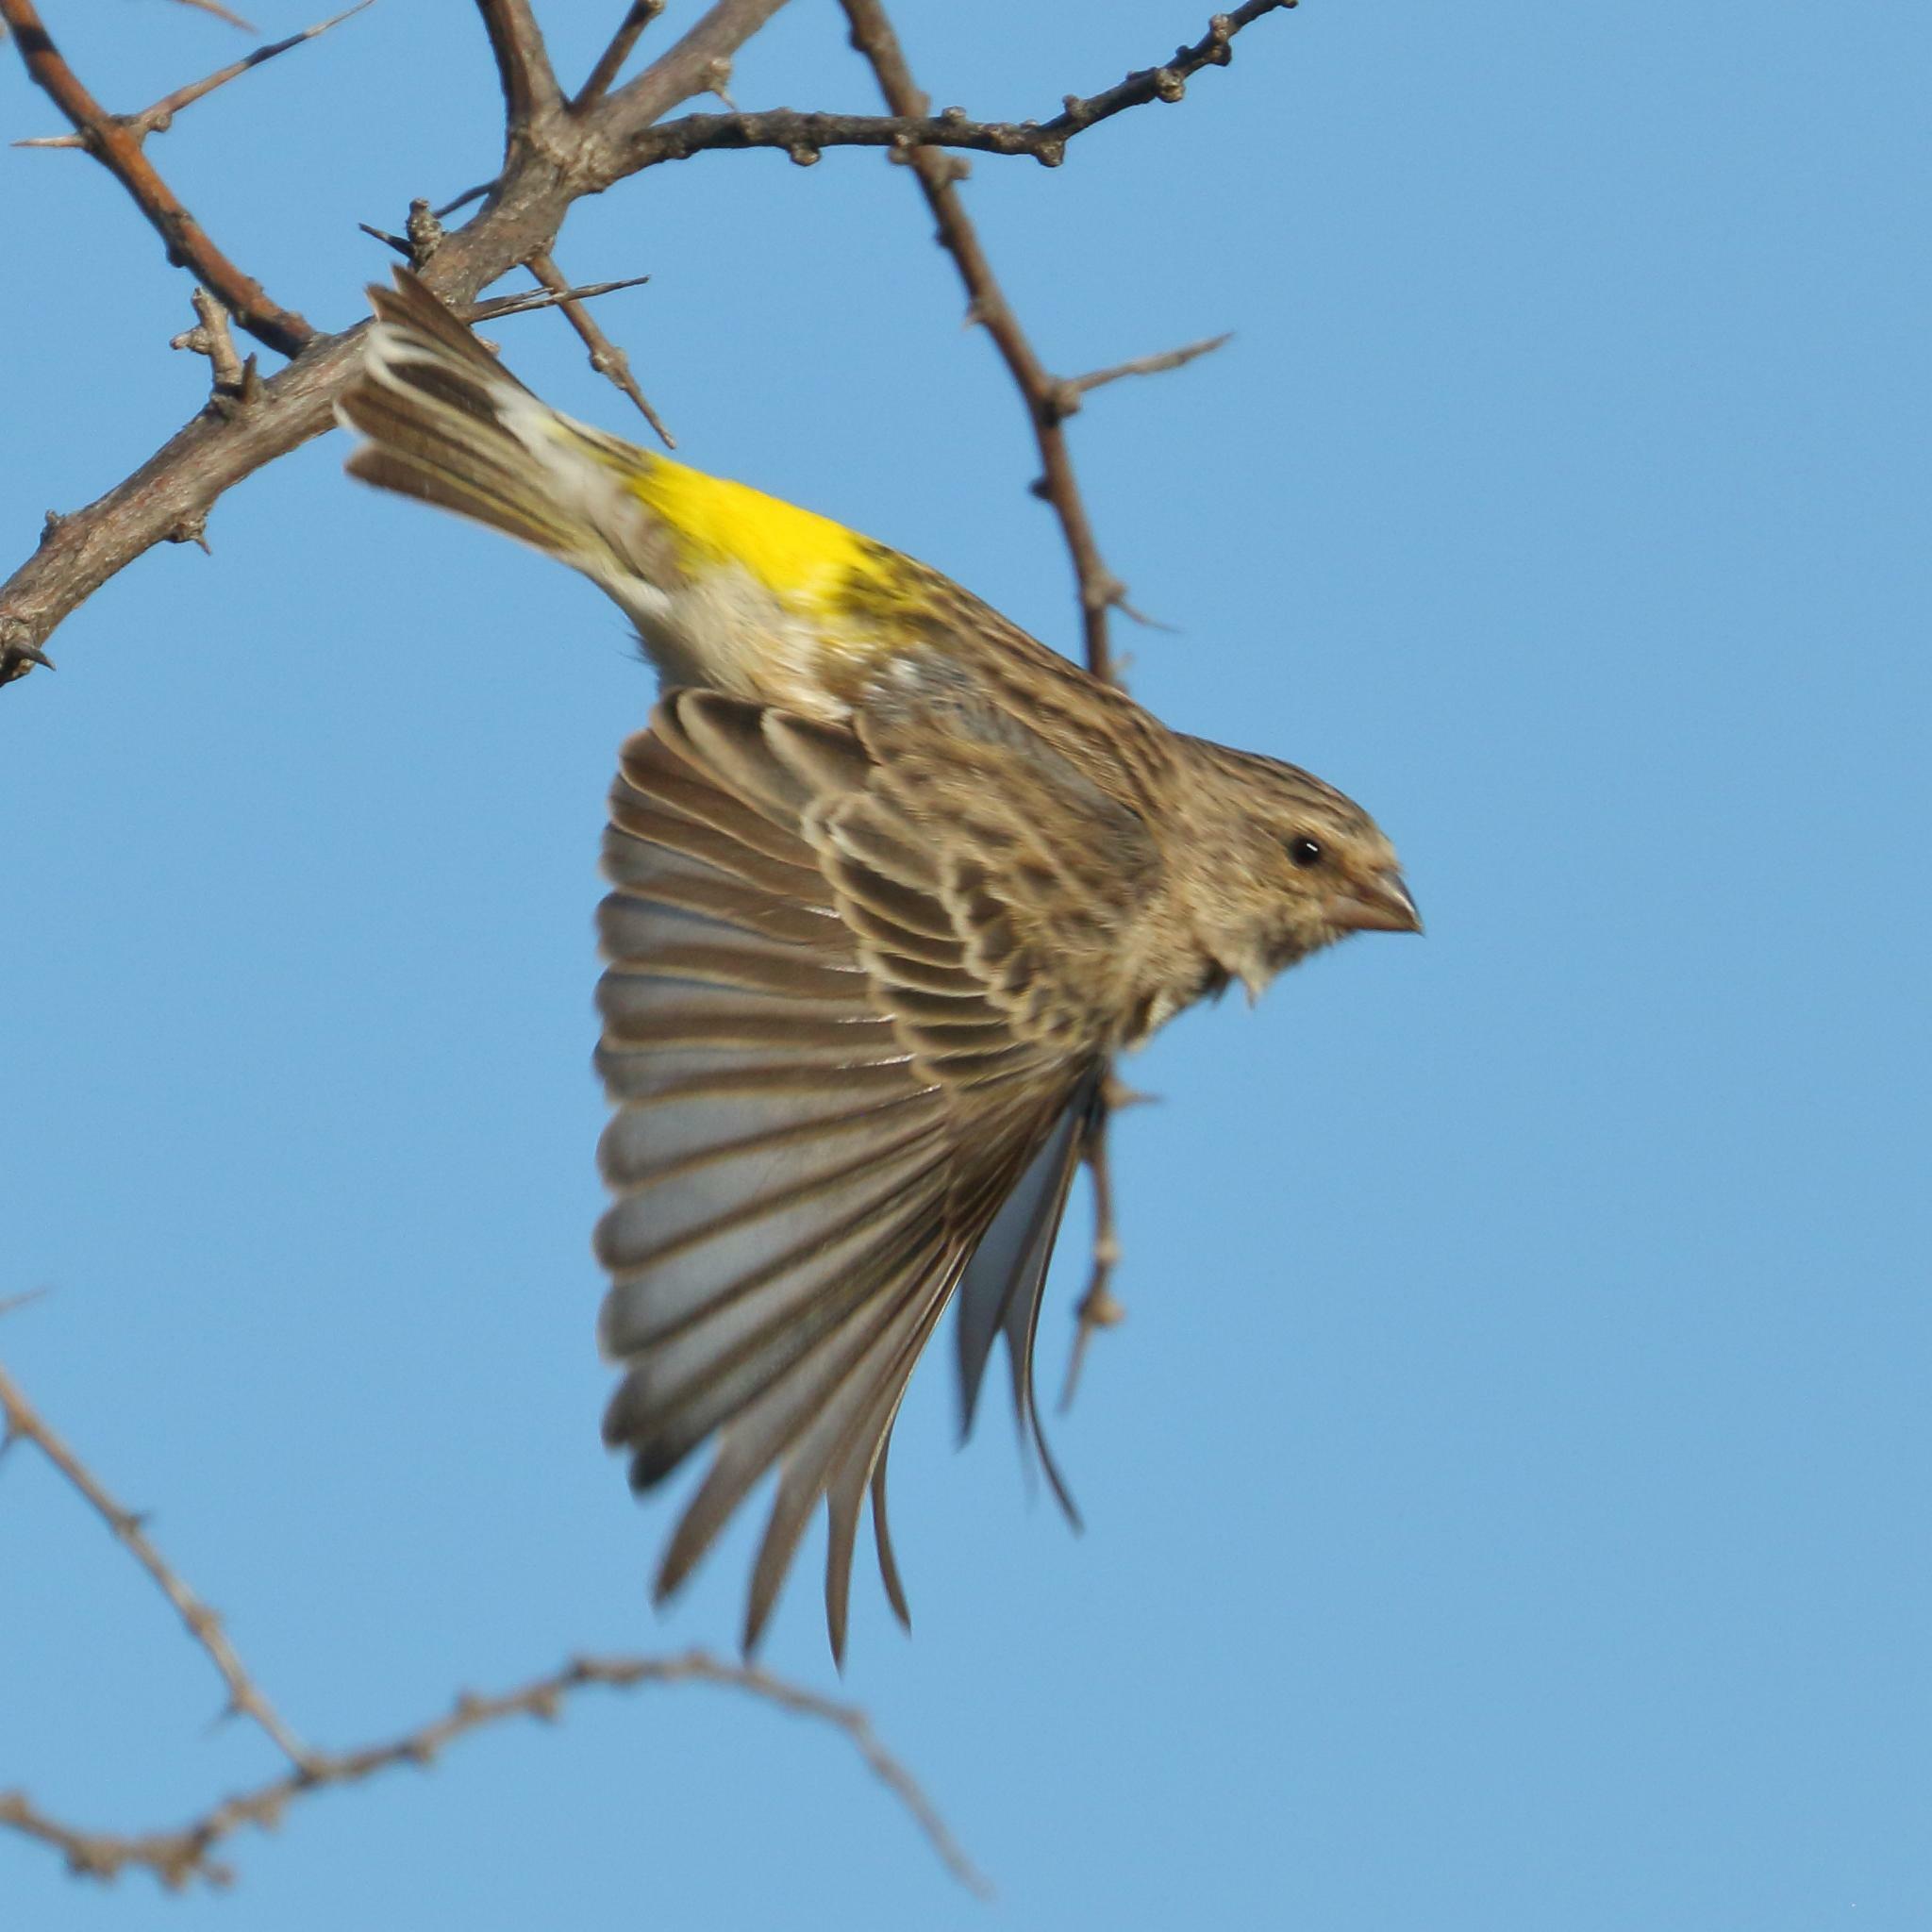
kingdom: Animalia
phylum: Chordata
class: Aves
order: Passeriformes
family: Fringillidae
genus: Crithagra
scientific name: Crithagra atrogularis
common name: Black-throated canary
